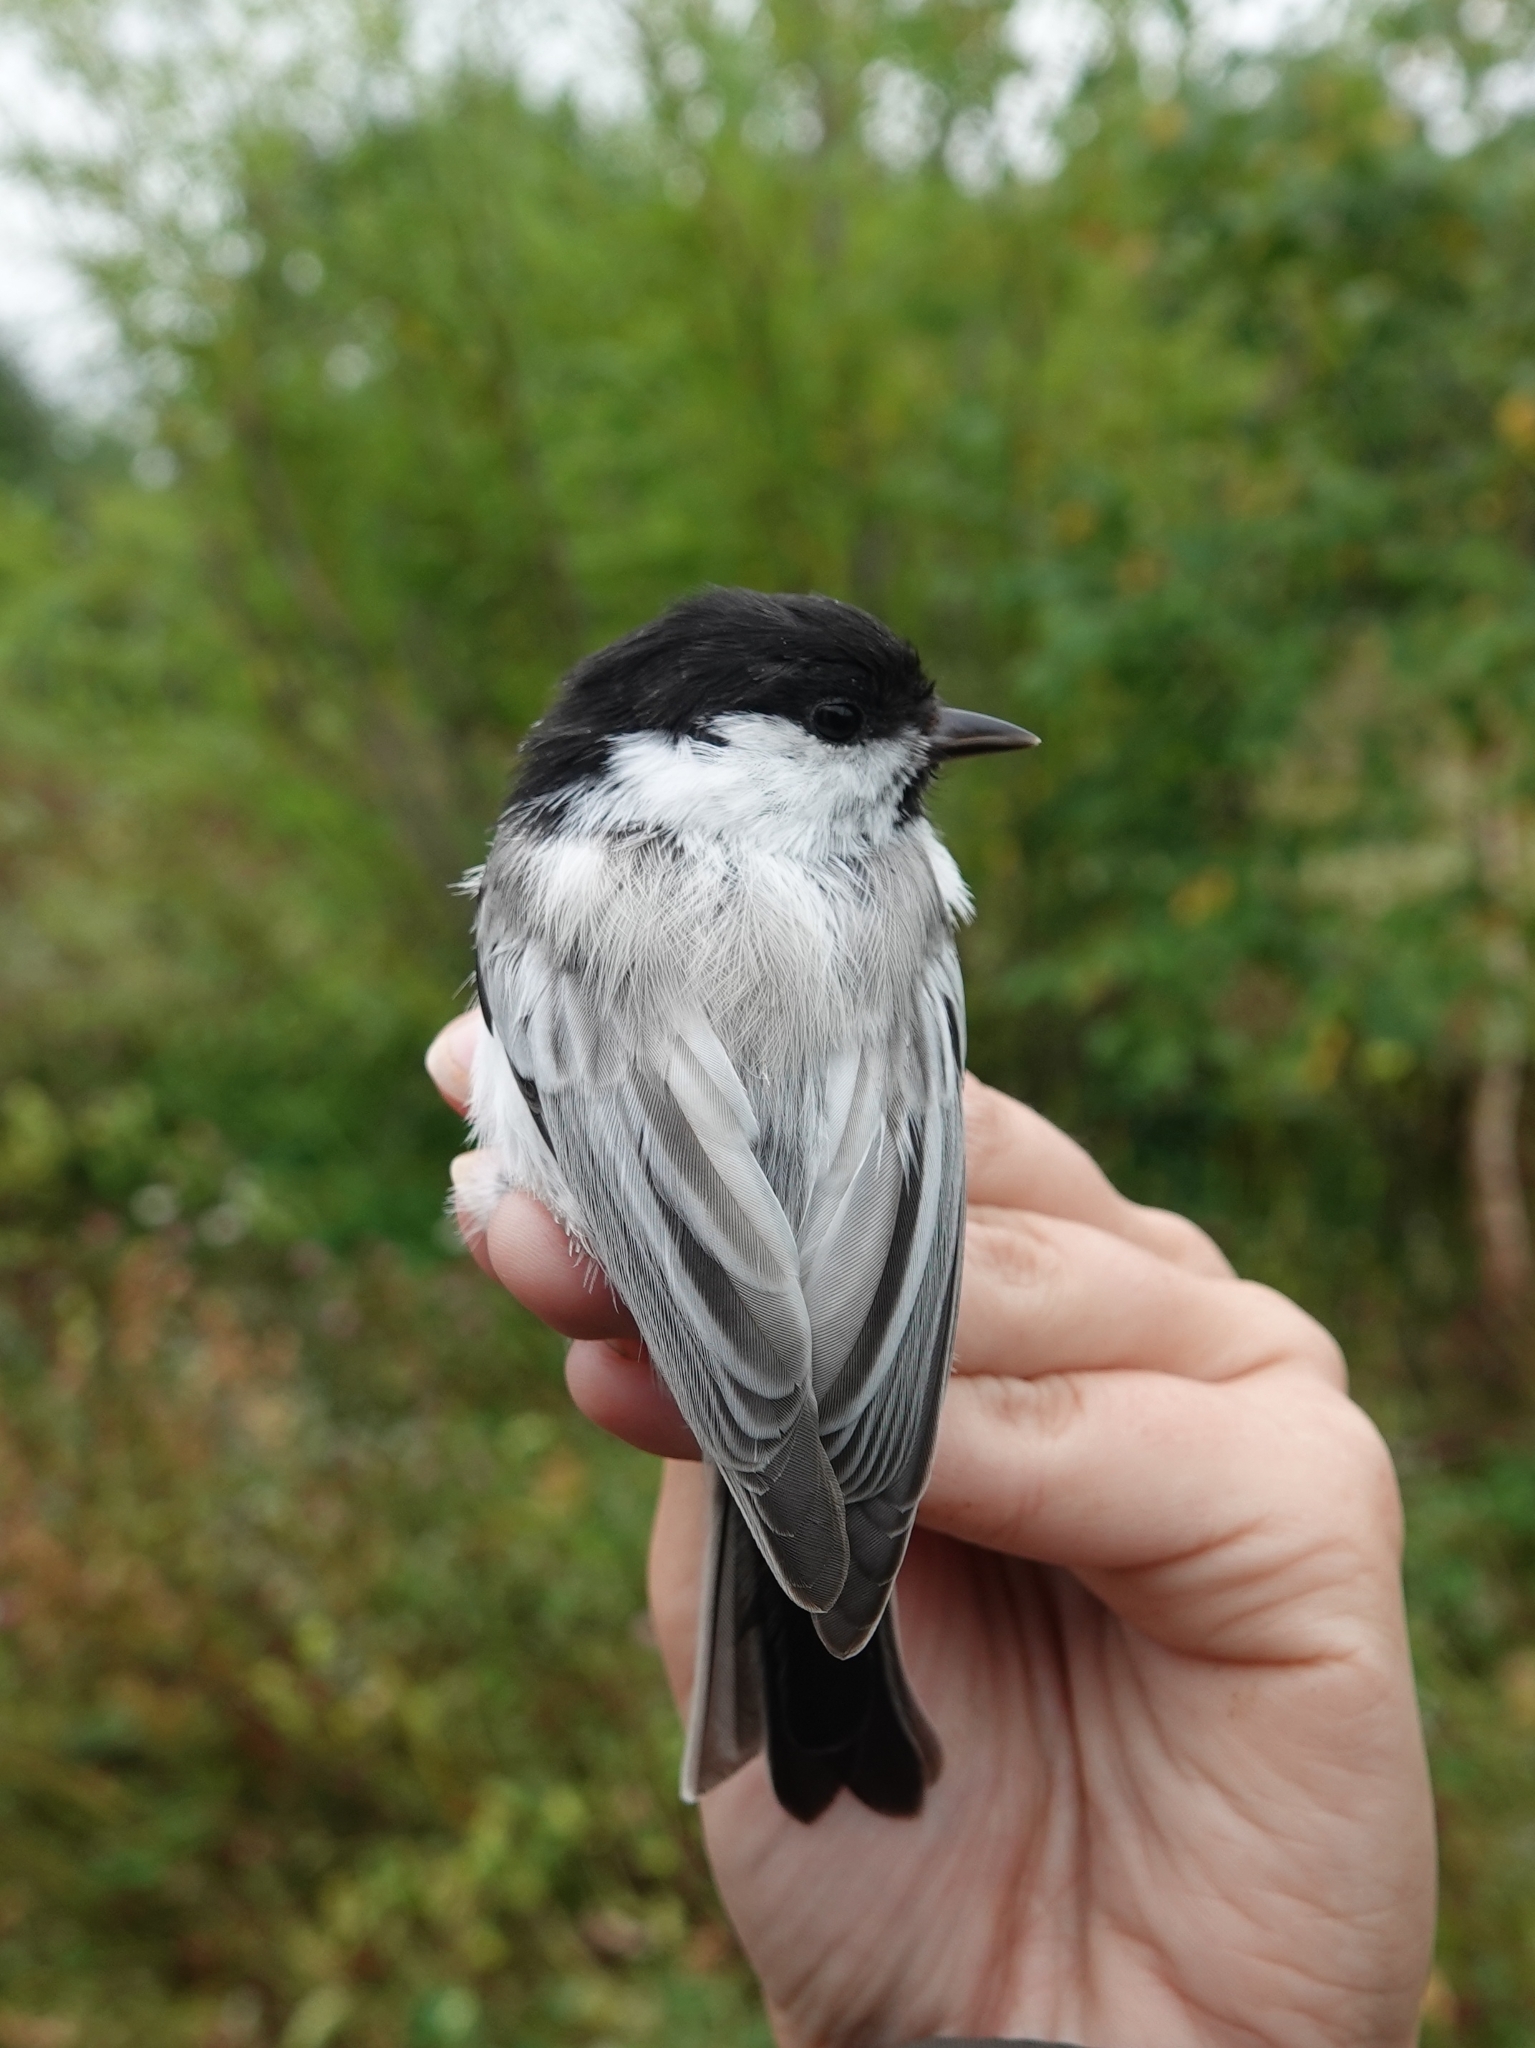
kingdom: Animalia
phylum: Chordata
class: Aves
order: Passeriformes
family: Paridae
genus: Poecile
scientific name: Poecile montanus
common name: Willow tit
